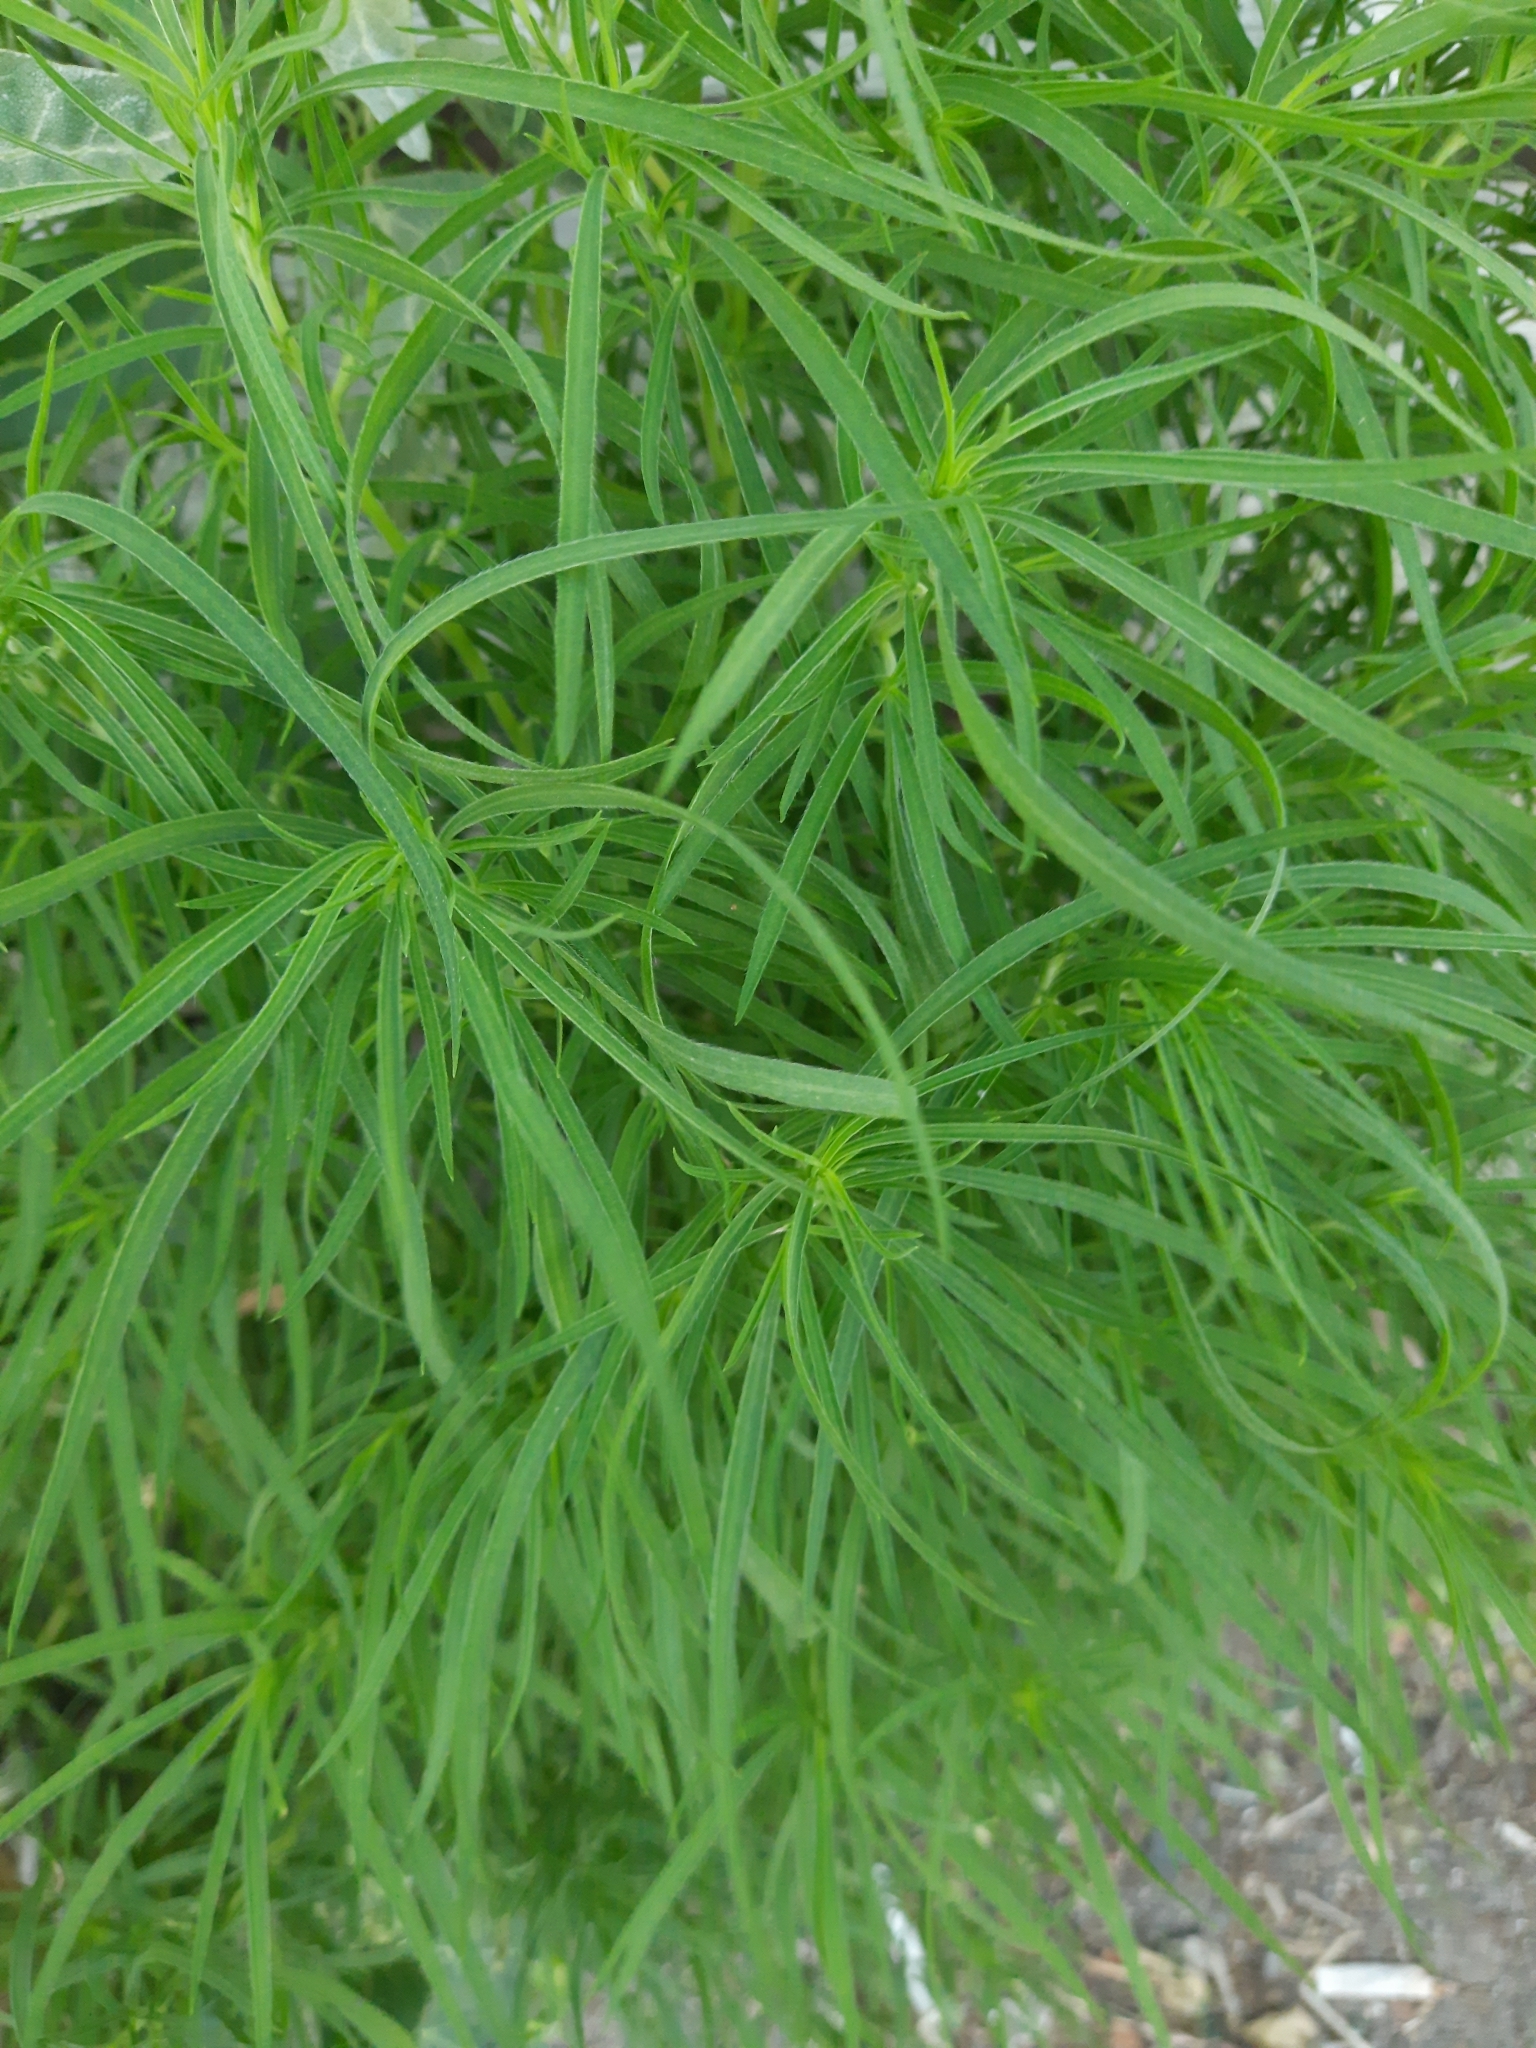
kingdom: Plantae
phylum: Tracheophyta
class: Magnoliopsida
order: Caryophyllales
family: Amaranthaceae
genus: Bassia
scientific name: Bassia scoparia
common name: Belvedere
